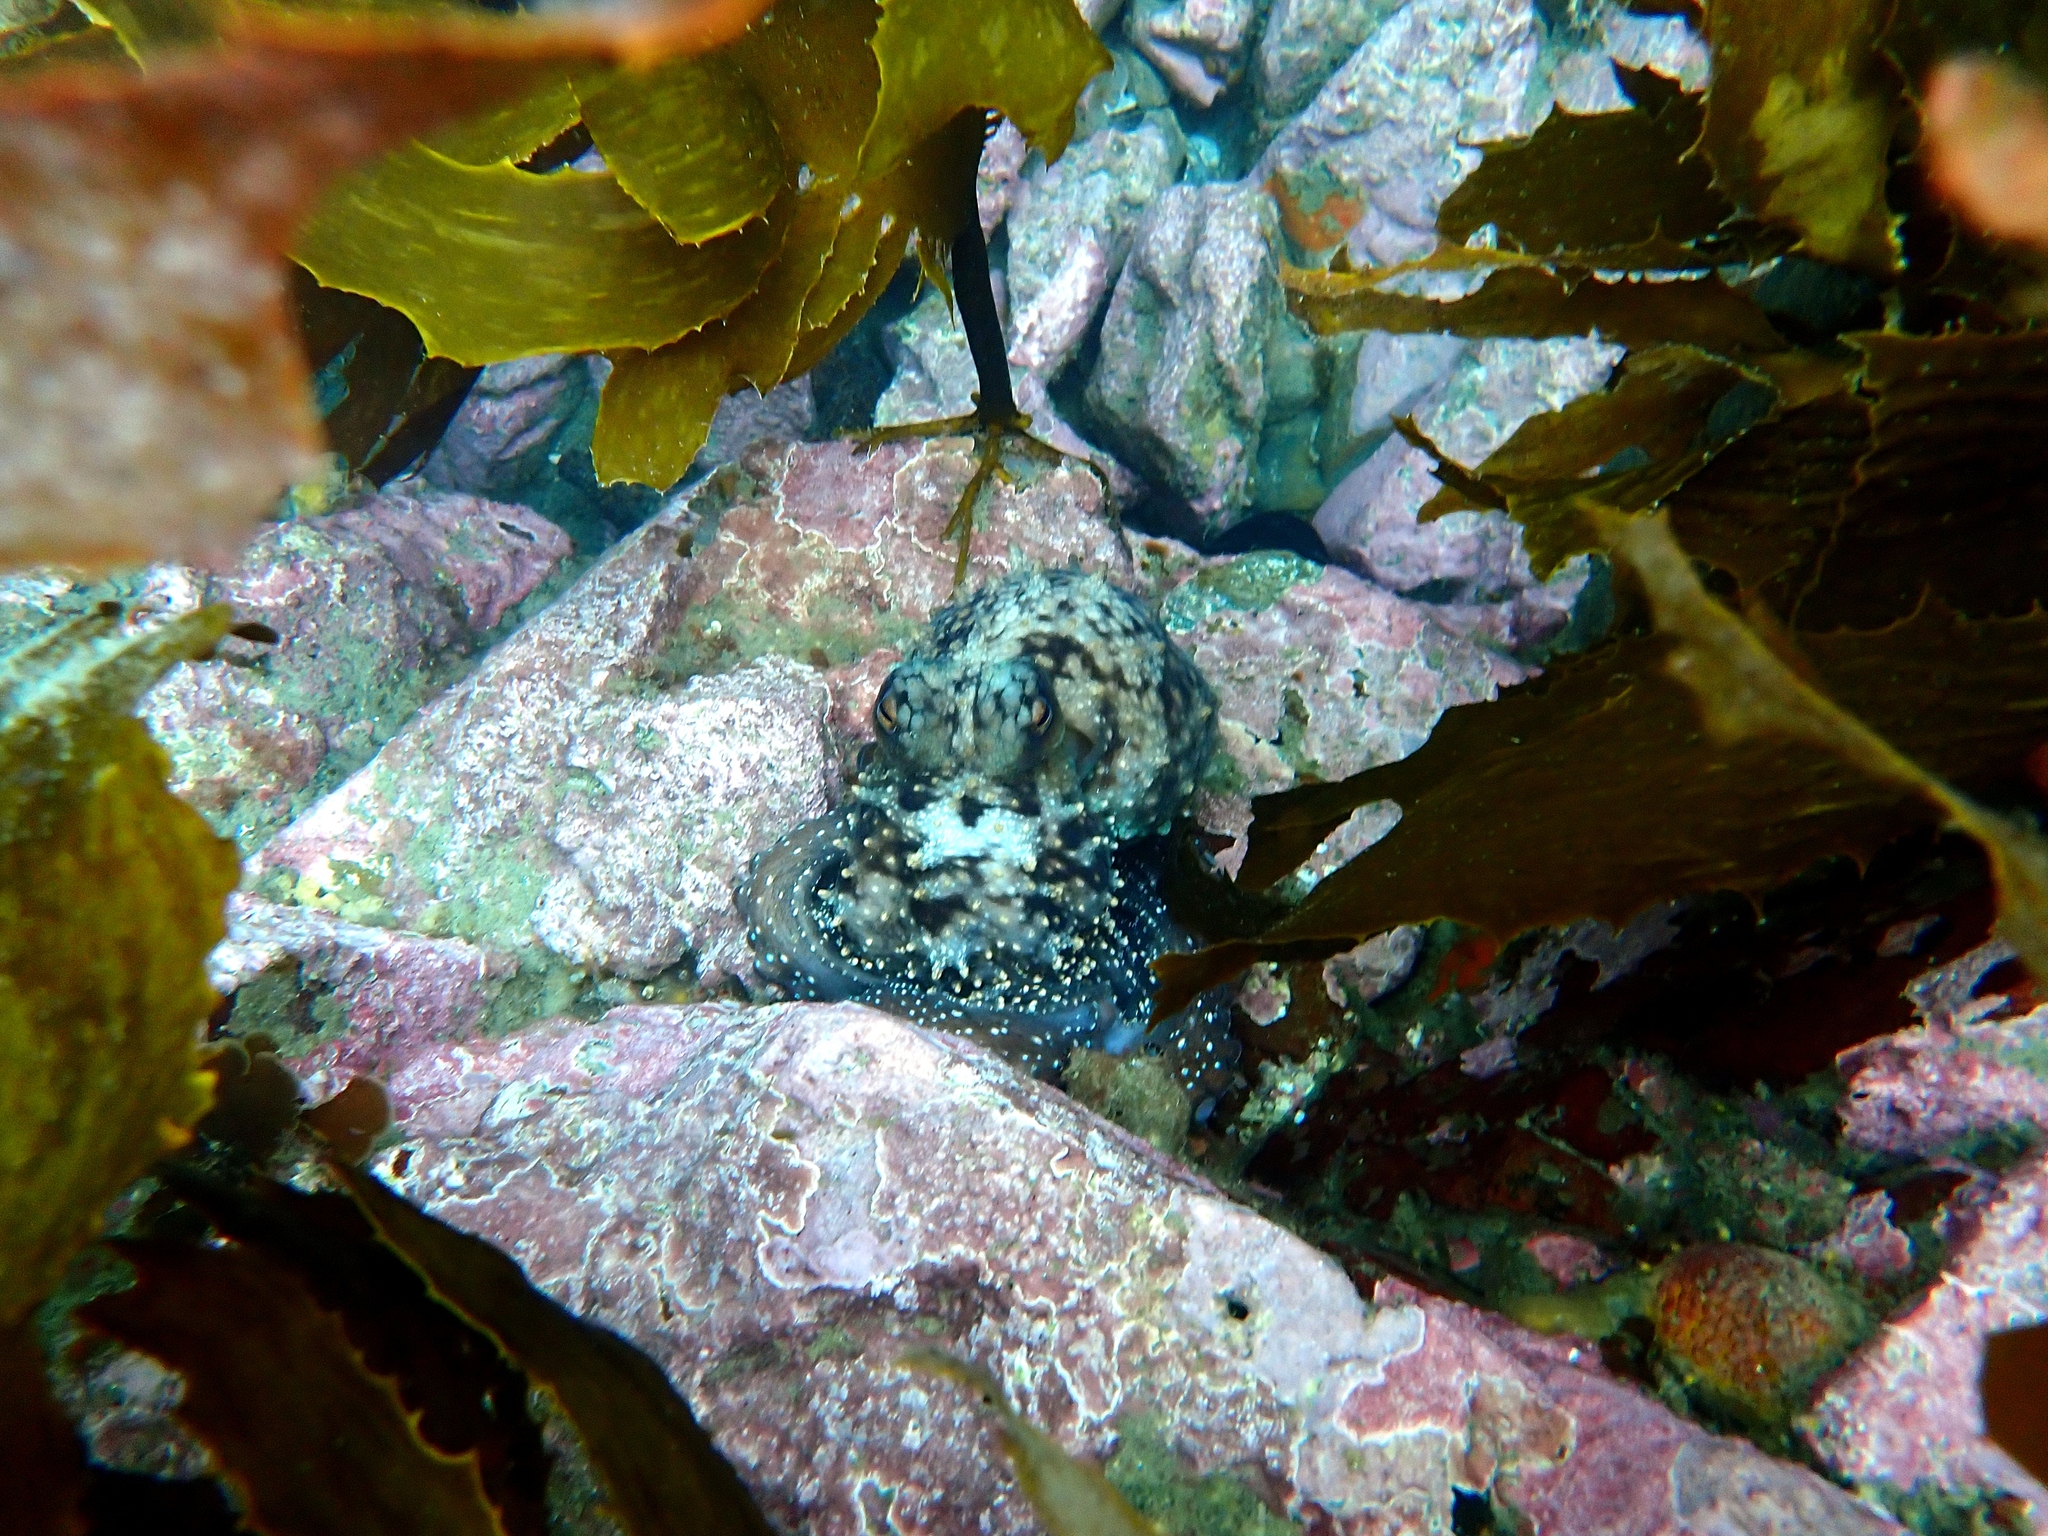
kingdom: Animalia
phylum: Mollusca
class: Cephalopoda
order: Octopoda
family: Octopodidae
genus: Macroctopus
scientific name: Macroctopus maorum
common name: Maori octopus
